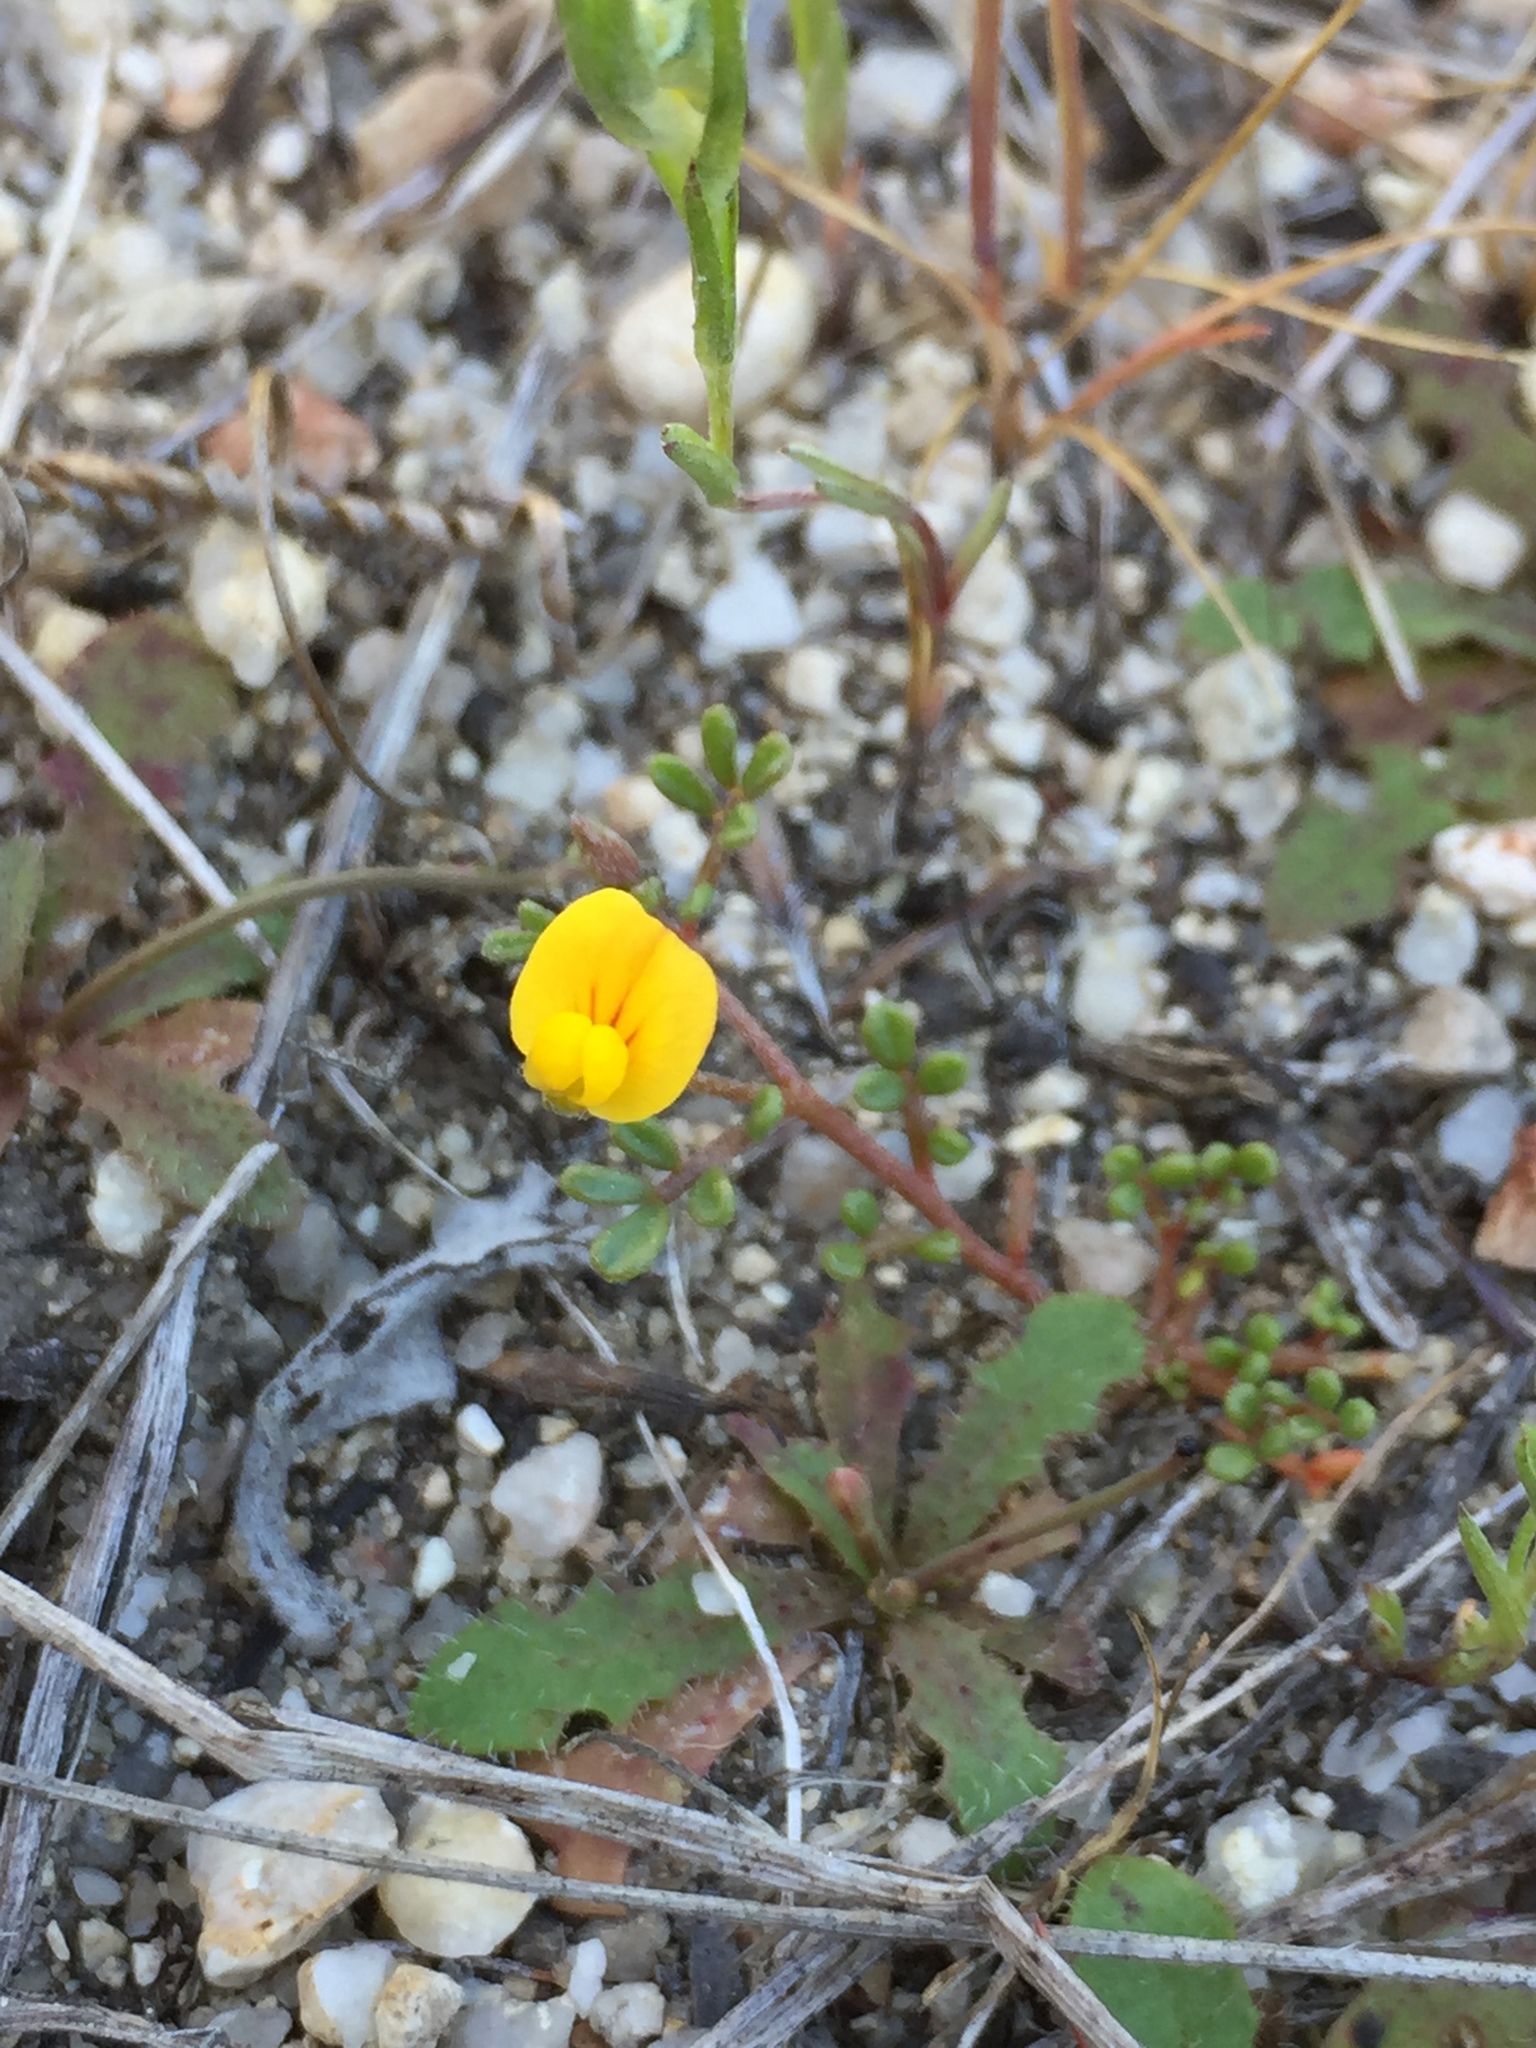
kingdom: Plantae
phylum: Tracheophyta
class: Magnoliopsida
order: Fabales
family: Fabaceae
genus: Acmispon
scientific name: Acmispon strigosus
